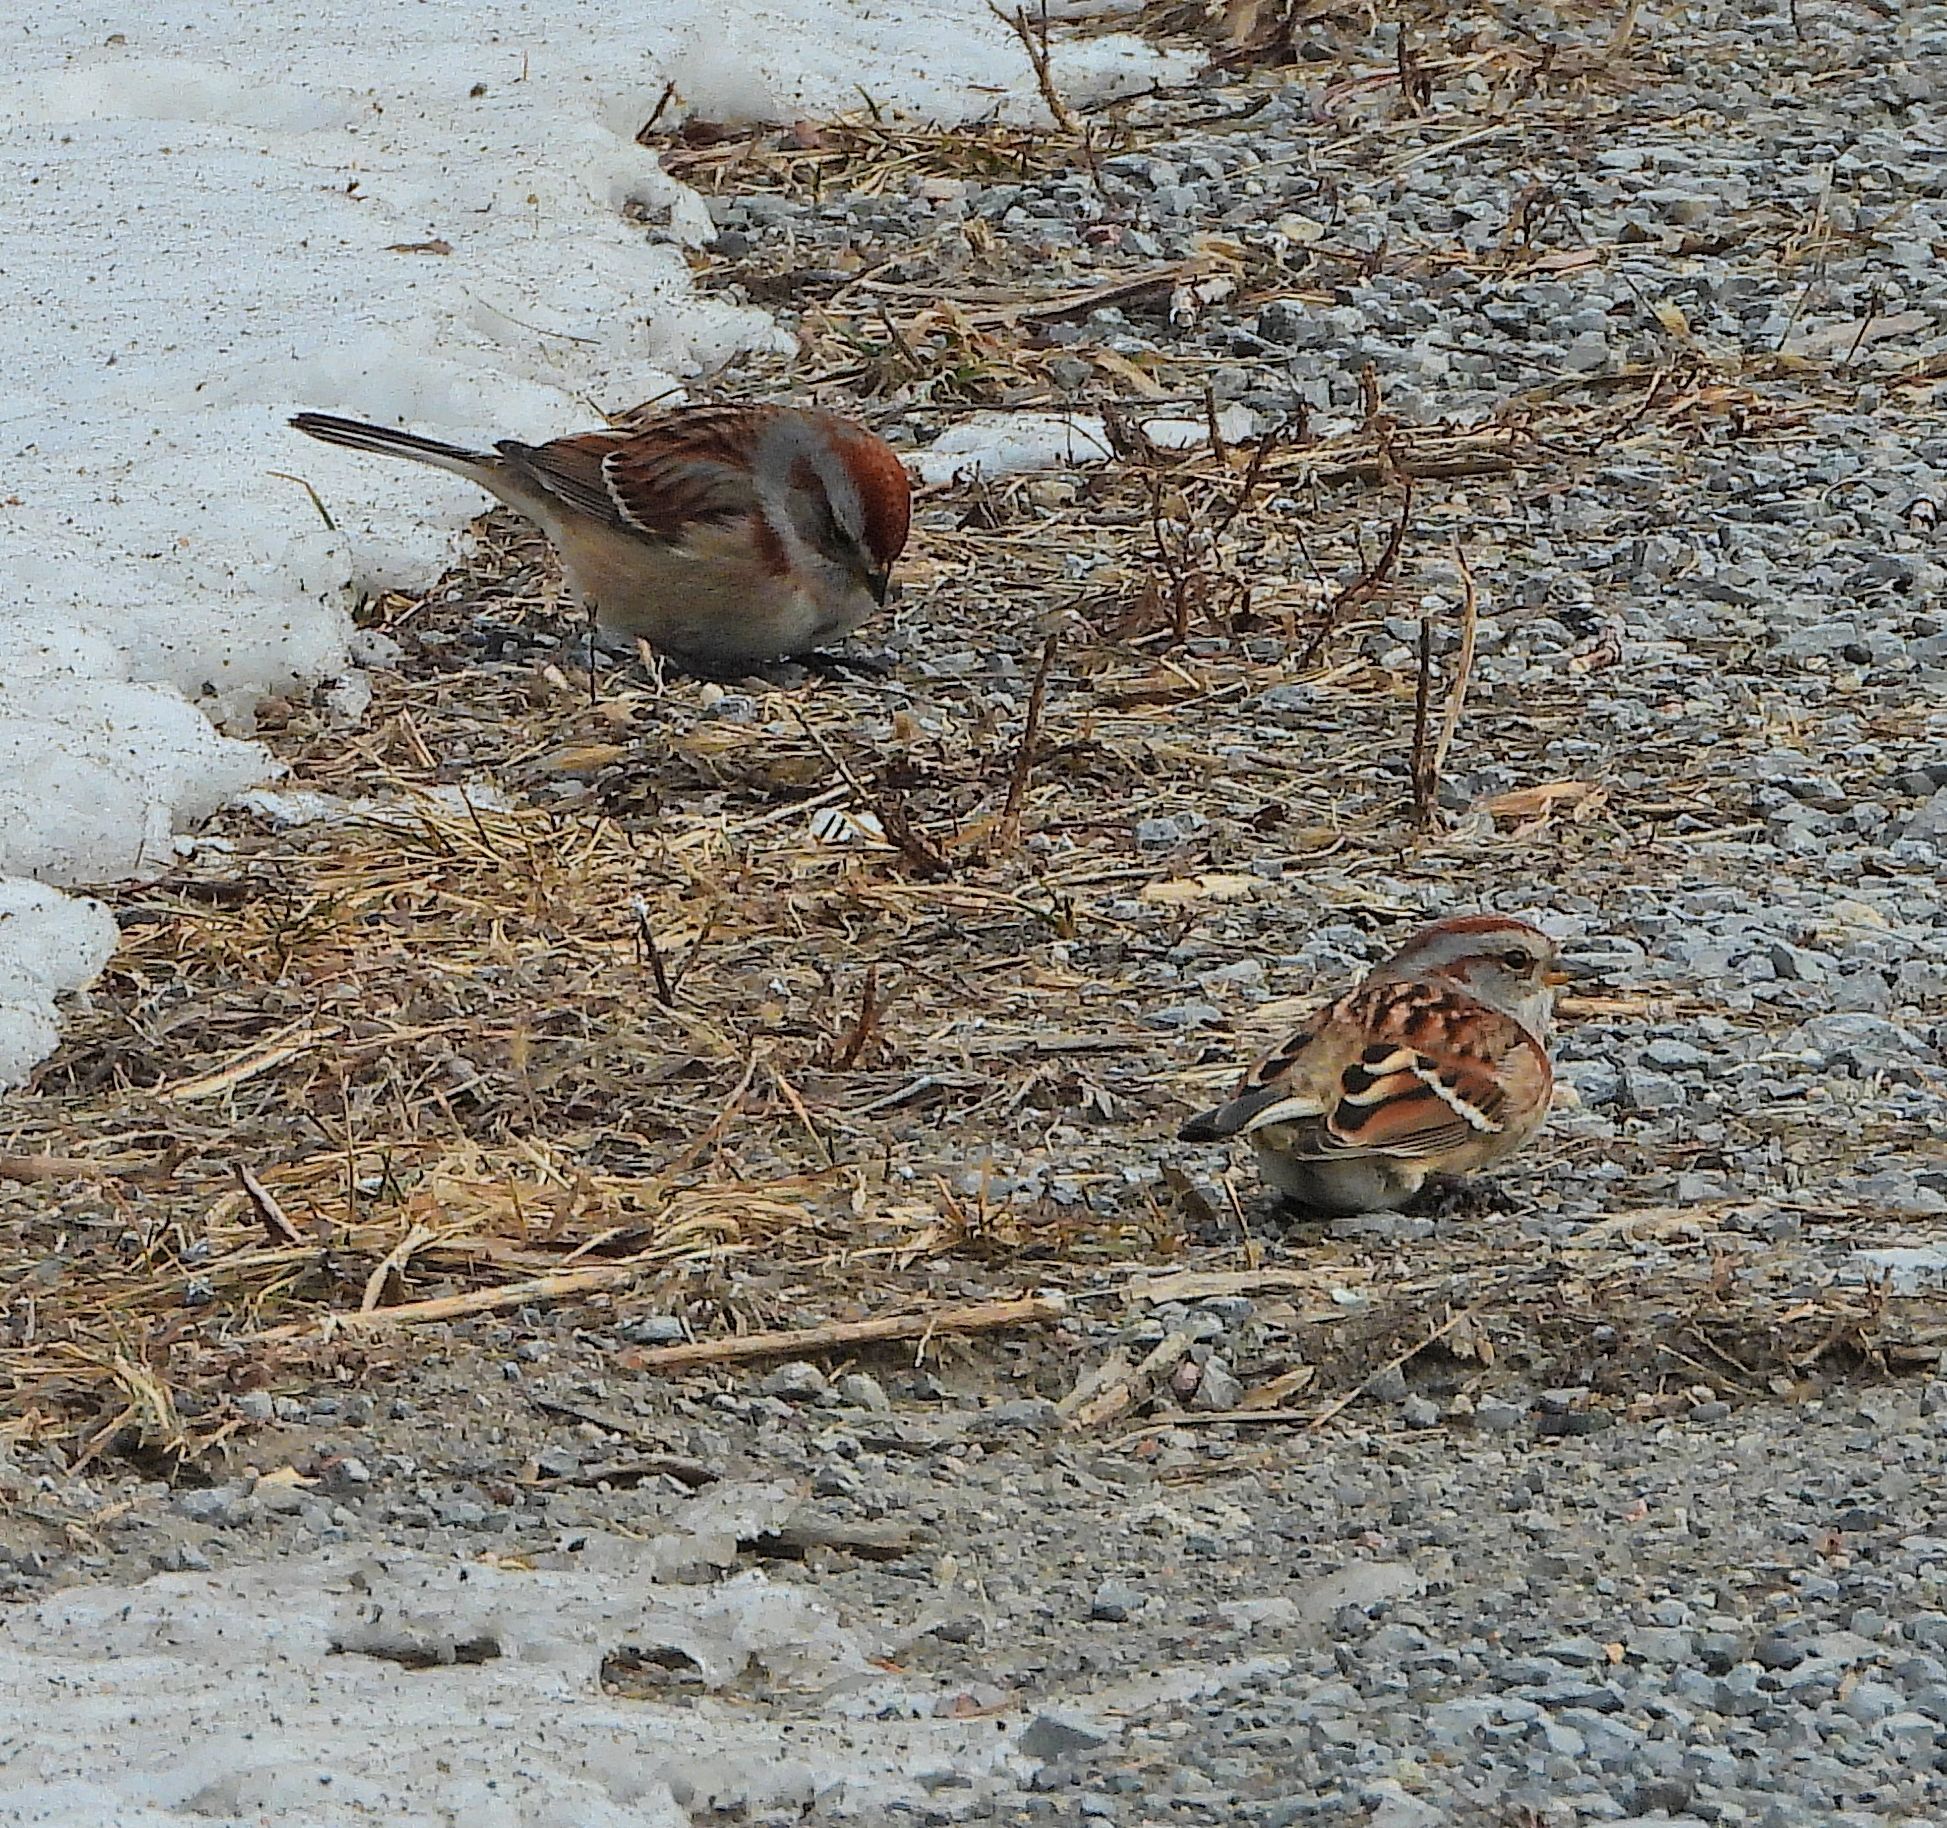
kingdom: Animalia
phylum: Chordata
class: Aves
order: Passeriformes
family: Passerellidae
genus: Spizelloides
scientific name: Spizelloides arborea
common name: American tree sparrow
